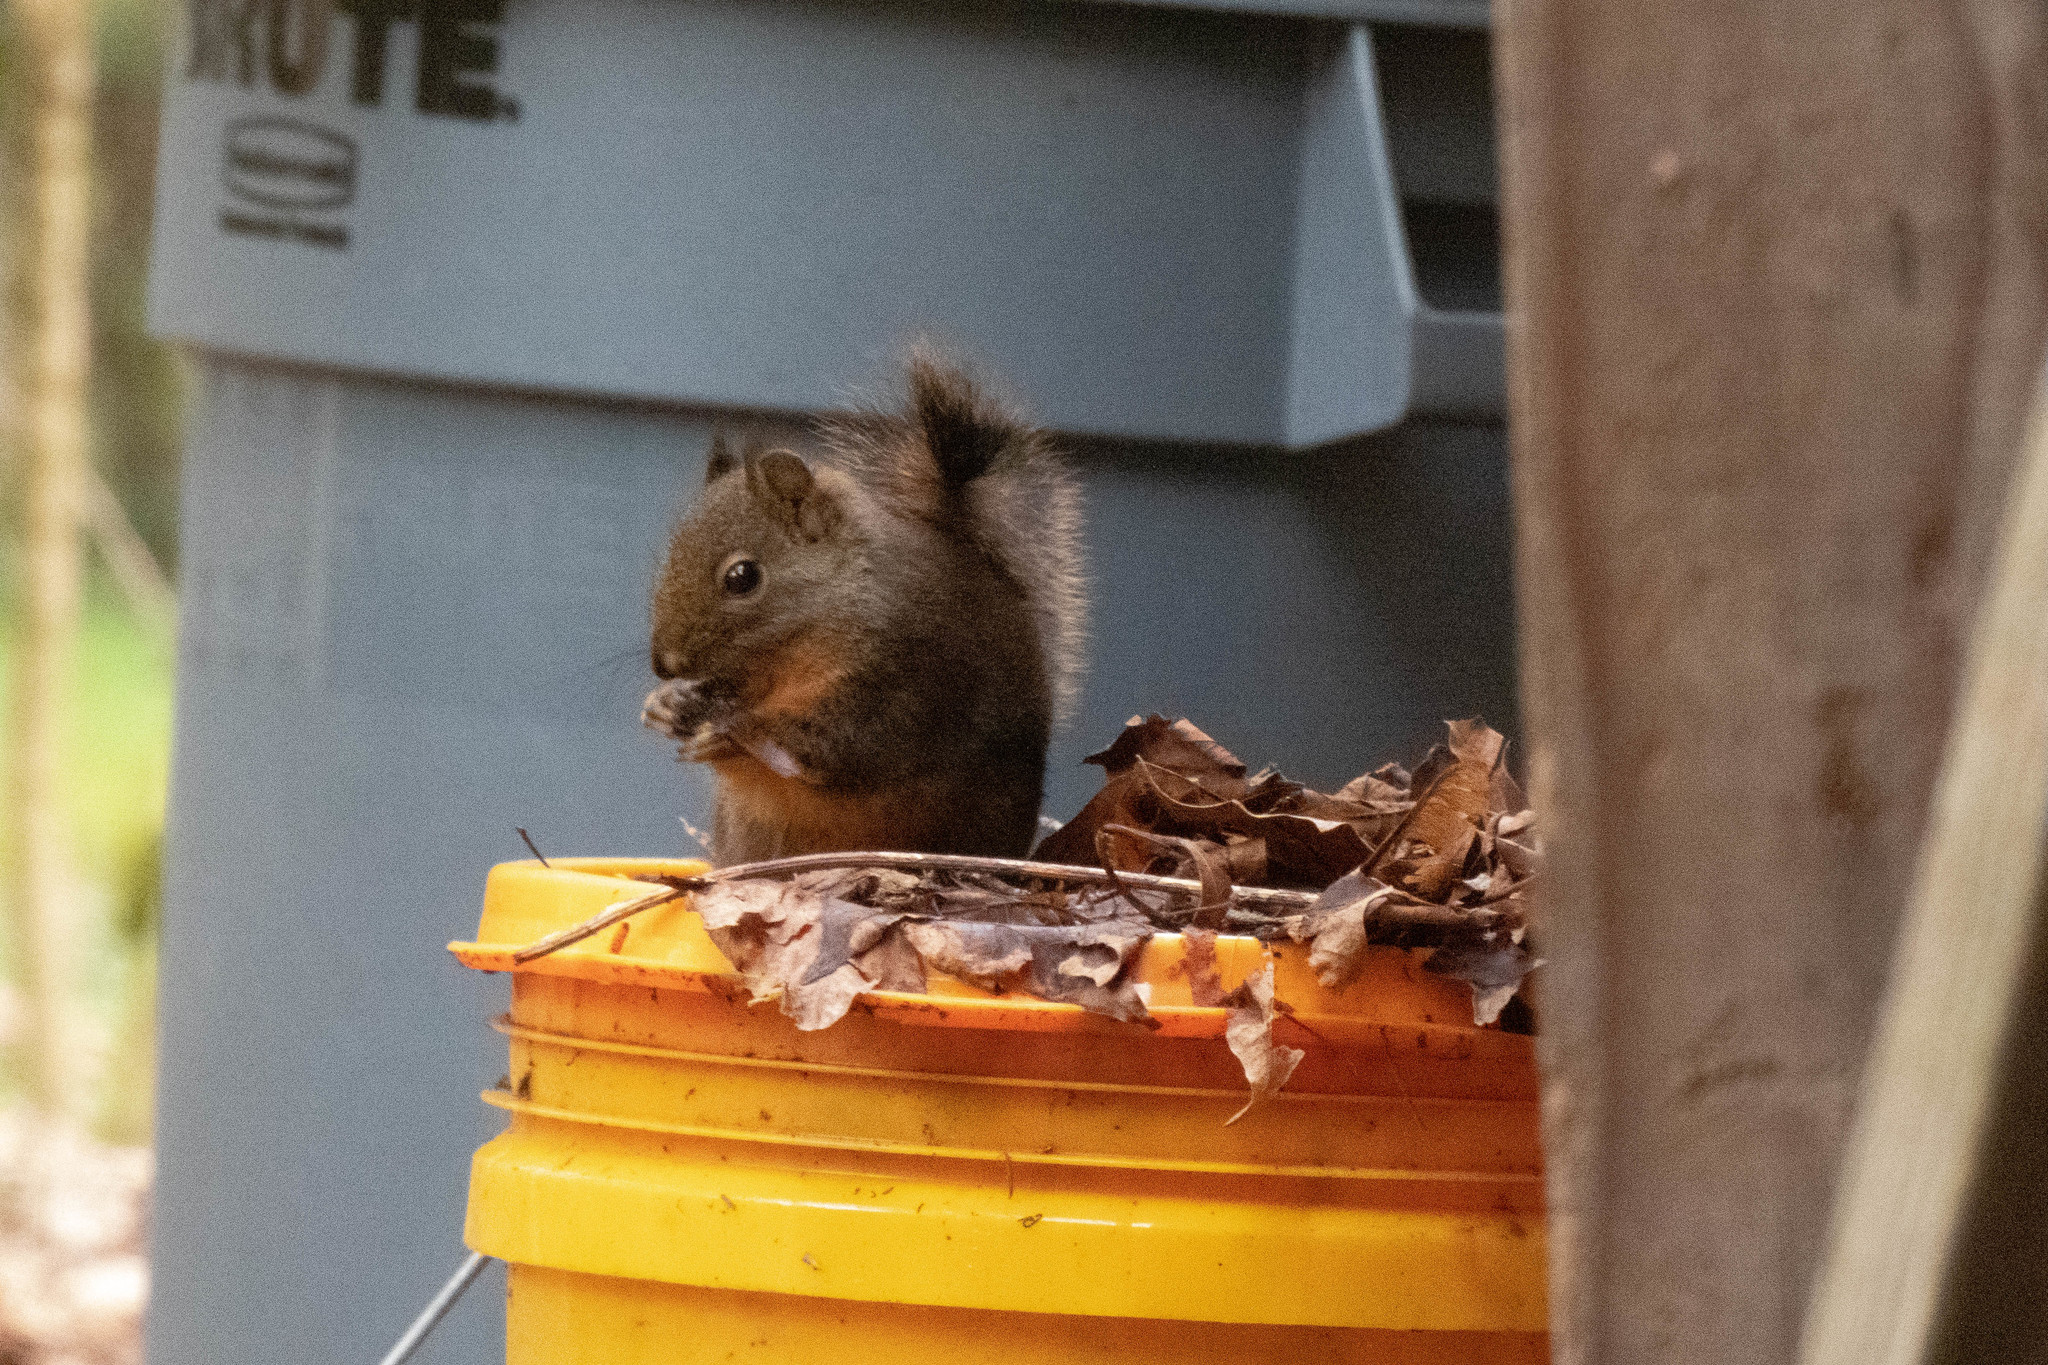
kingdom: Animalia
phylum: Chordata
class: Mammalia
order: Rodentia
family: Sciuridae
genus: Tamiasciurus
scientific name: Tamiasciurus douglasii
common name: Douglas's squirrel
